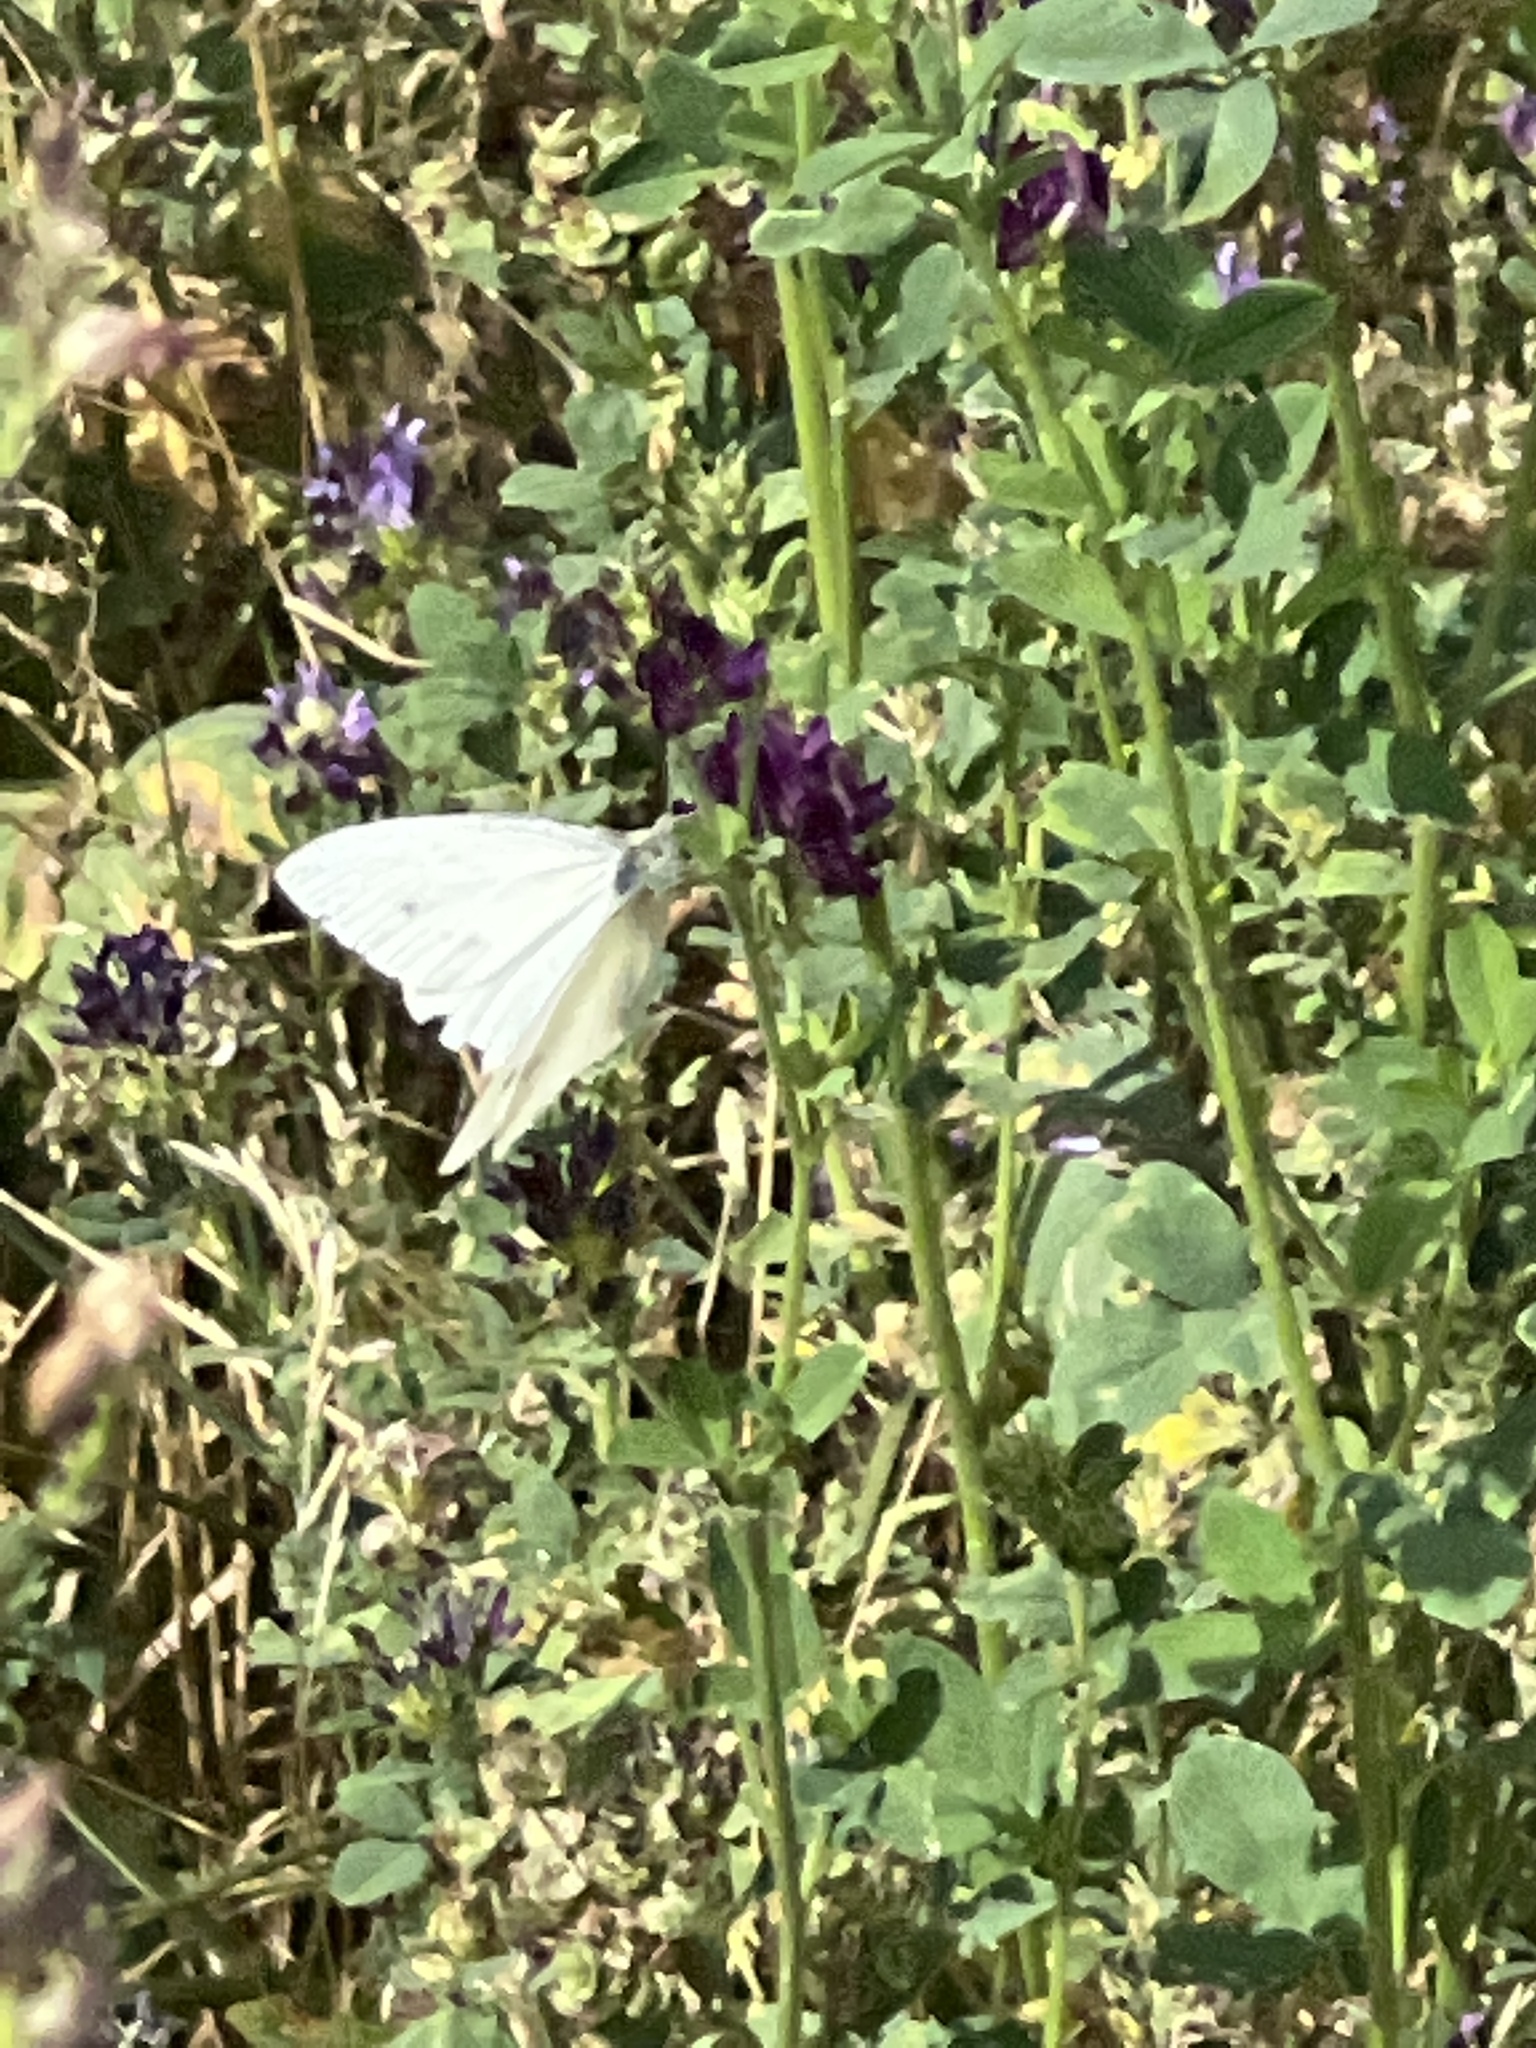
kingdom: Animalia
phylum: Arthropoda
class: Insecta
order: Lepidoptera
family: Pieridae
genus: Pieris
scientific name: Pieris rapae
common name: Small white
